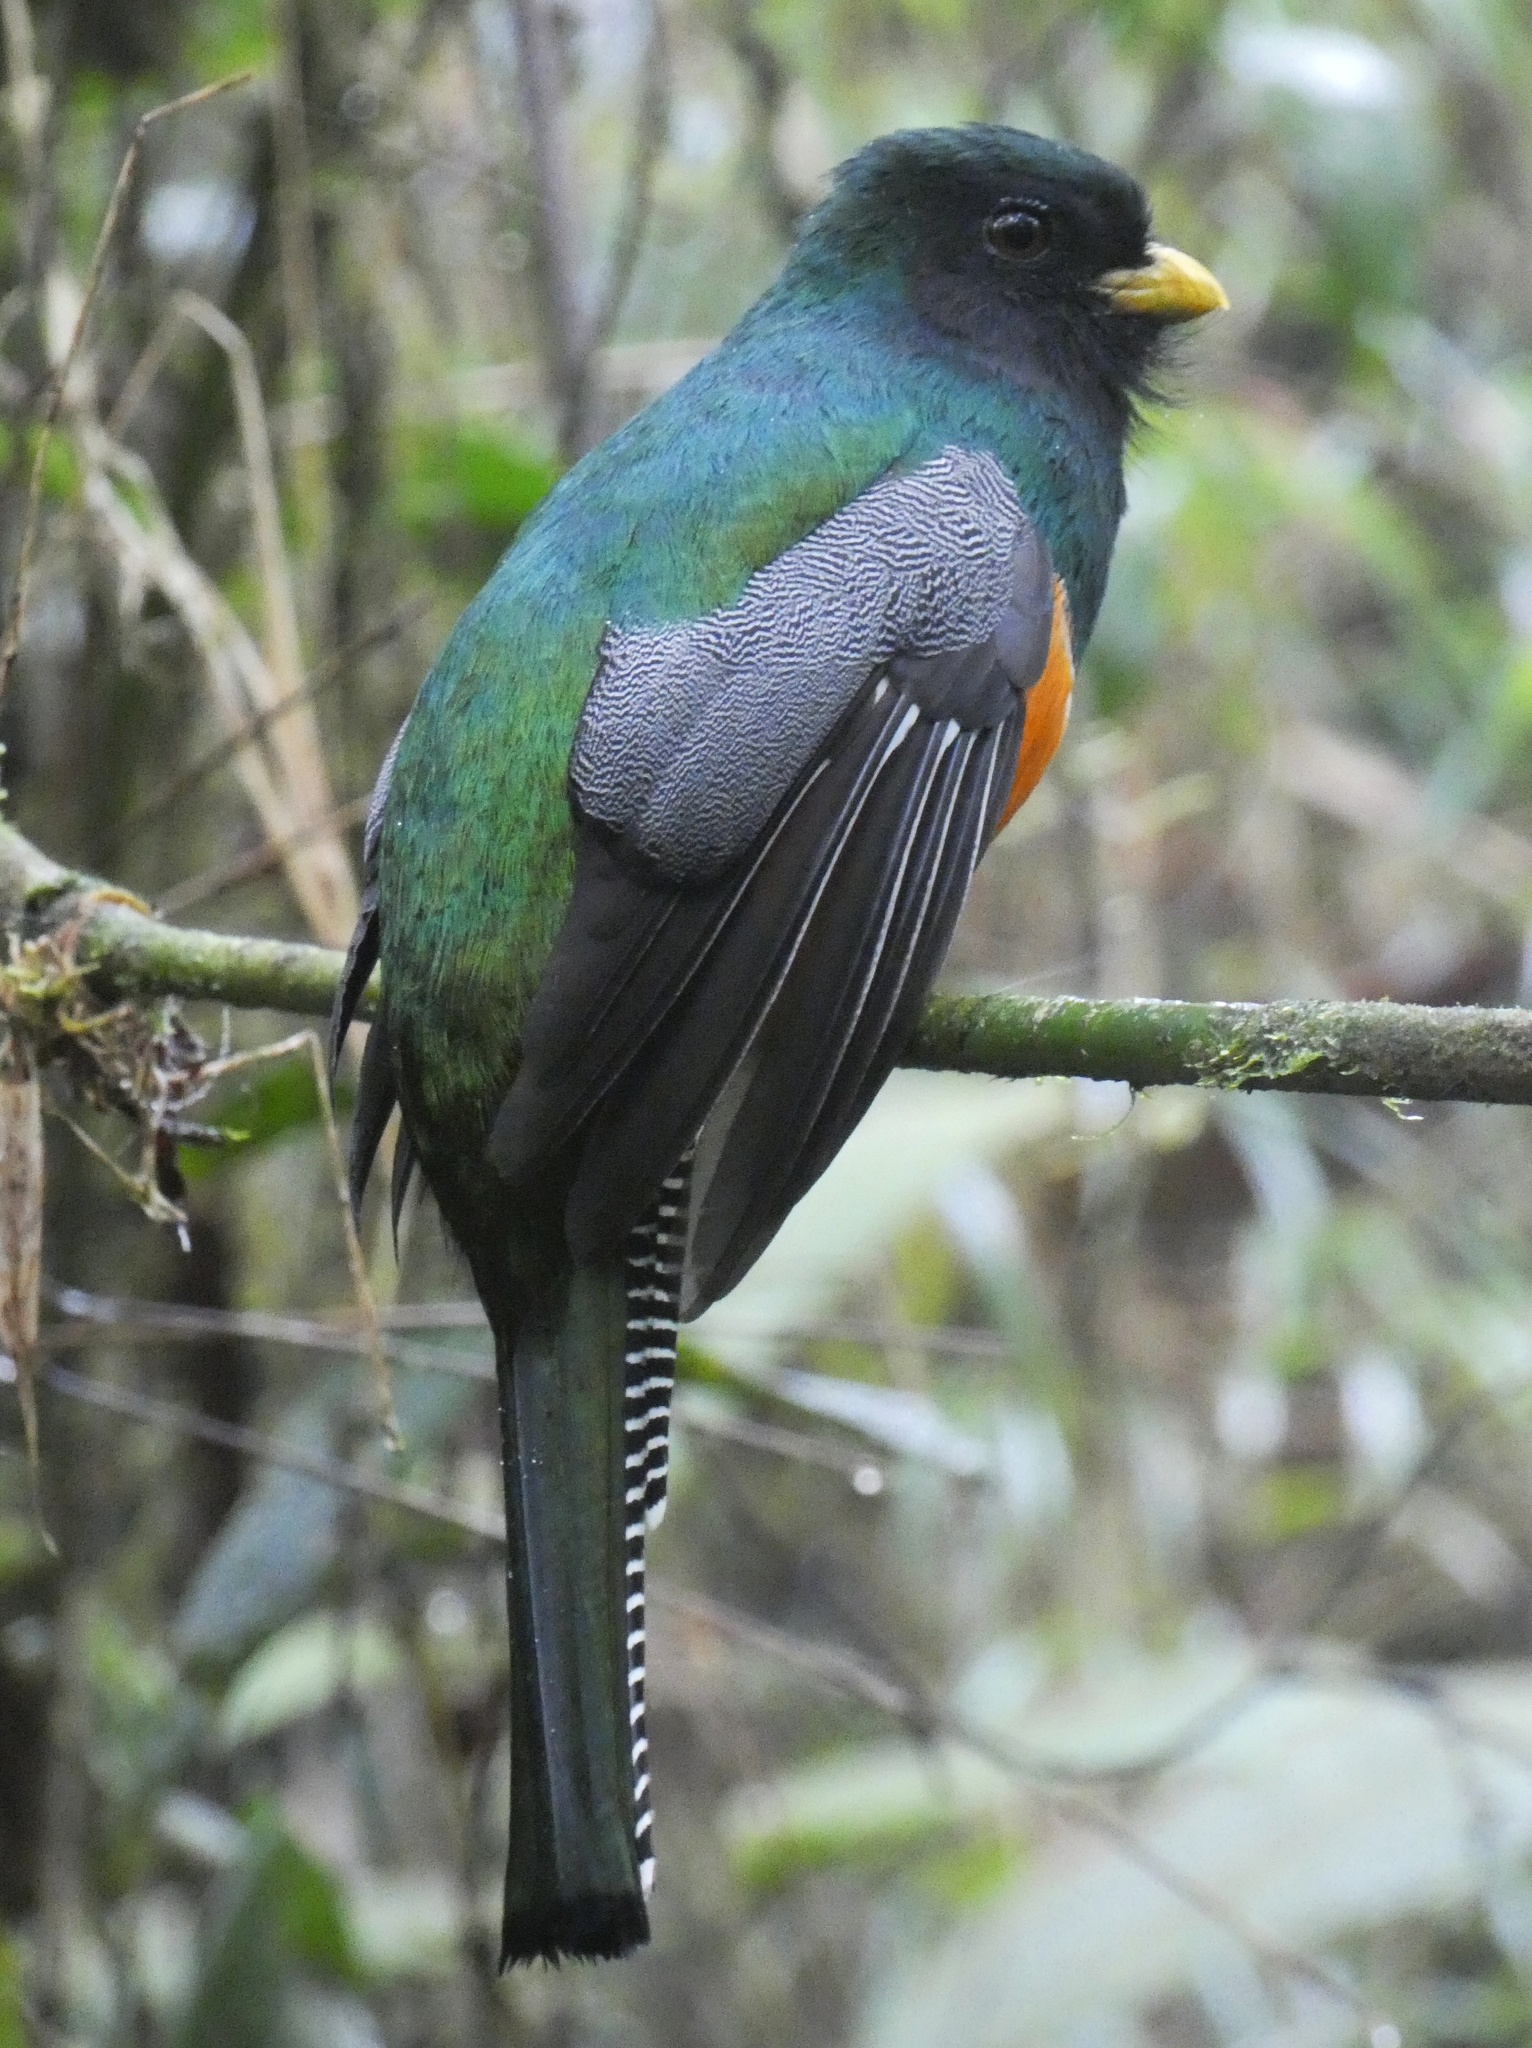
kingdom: Animalia
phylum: Chordata
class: Aves
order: Trogoniformes
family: Trogonidae
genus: Trogon
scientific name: Trogon collaris
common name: Collared trogon
